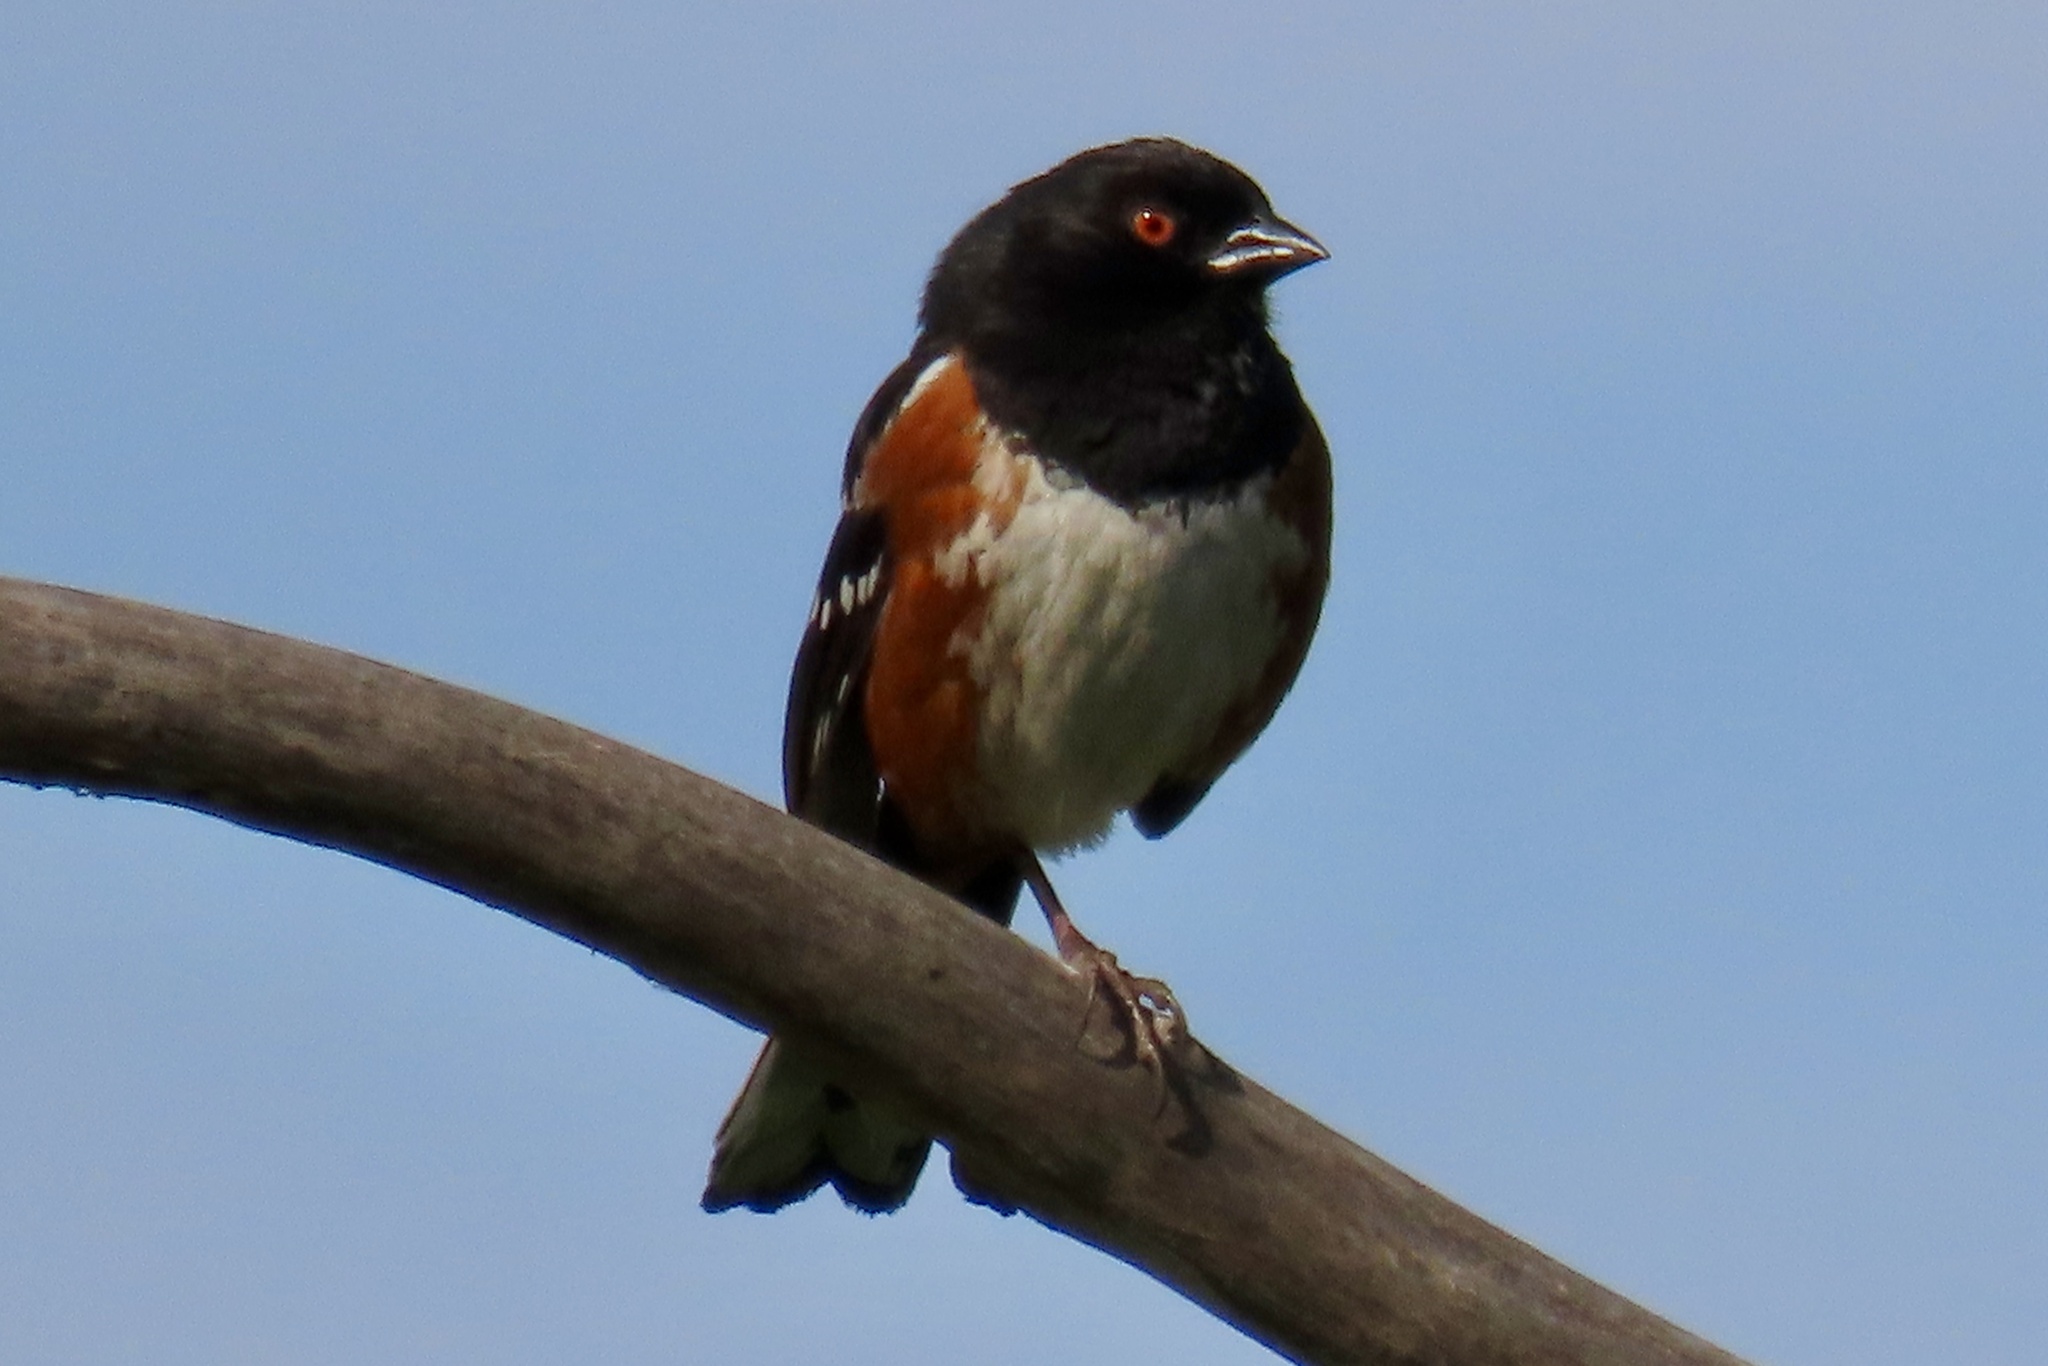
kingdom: Animalia
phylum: Chordata
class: Aves
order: Passeriformes
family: Passerellidae
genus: Pipilo
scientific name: Pipilo maculatus
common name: Spotted towhee
